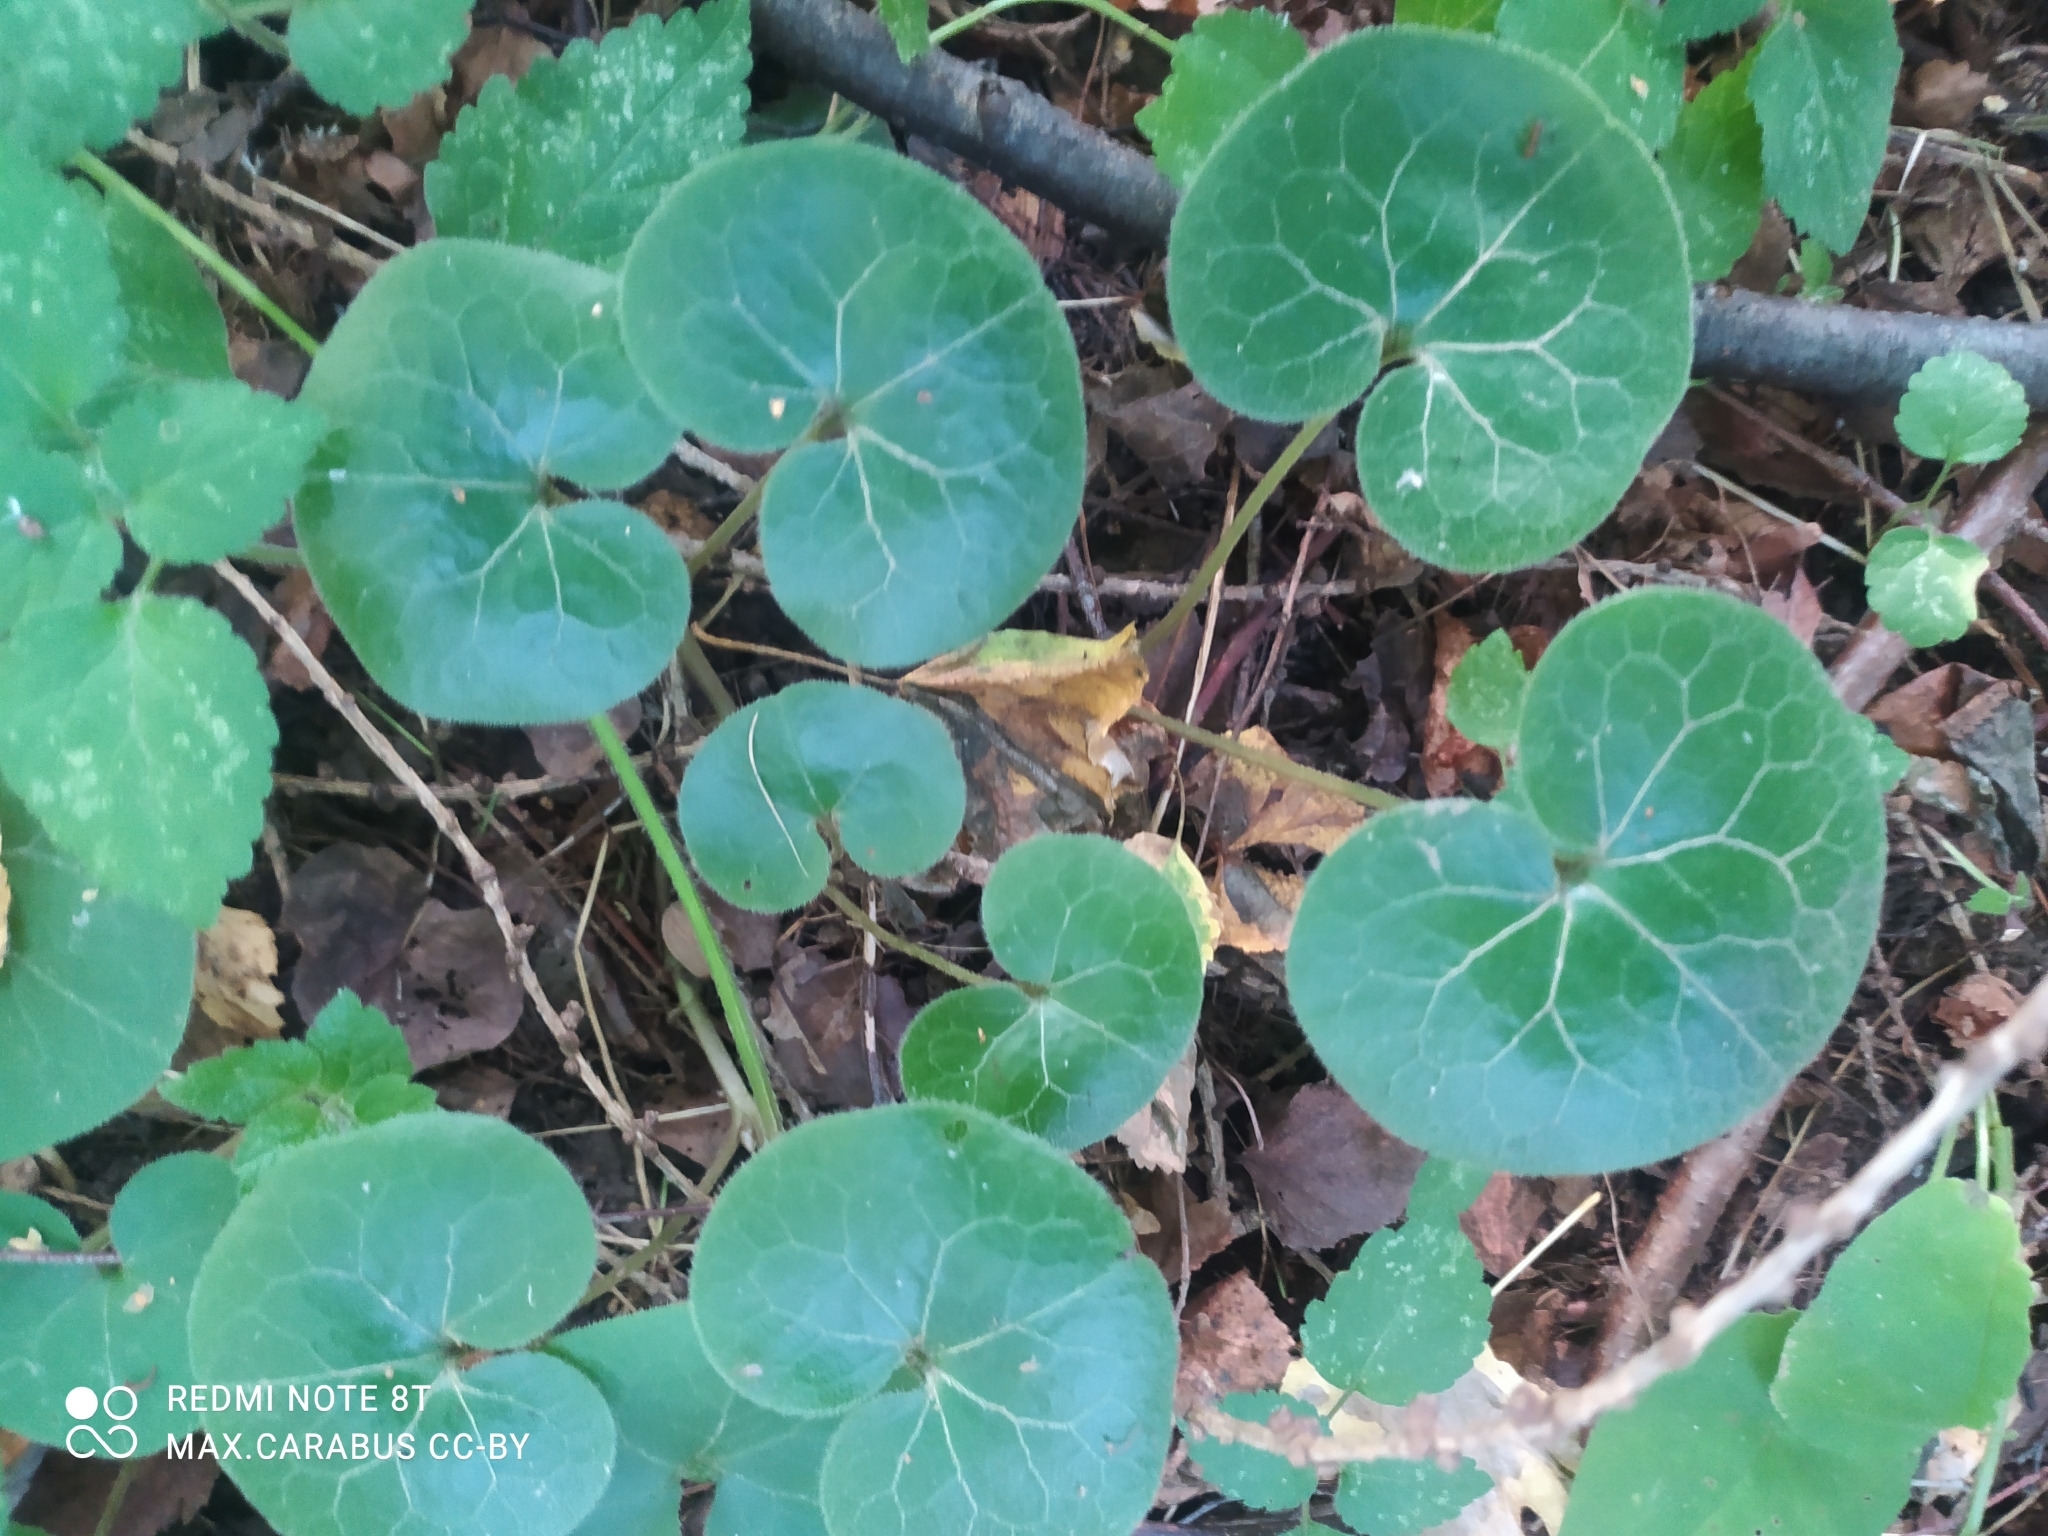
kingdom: Plantae
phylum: Tracheophyta
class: Magnoliopsida
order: Piperales
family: Aristolochiaceae
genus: Asarum
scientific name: Asarum europaeum
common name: Asarabacca
